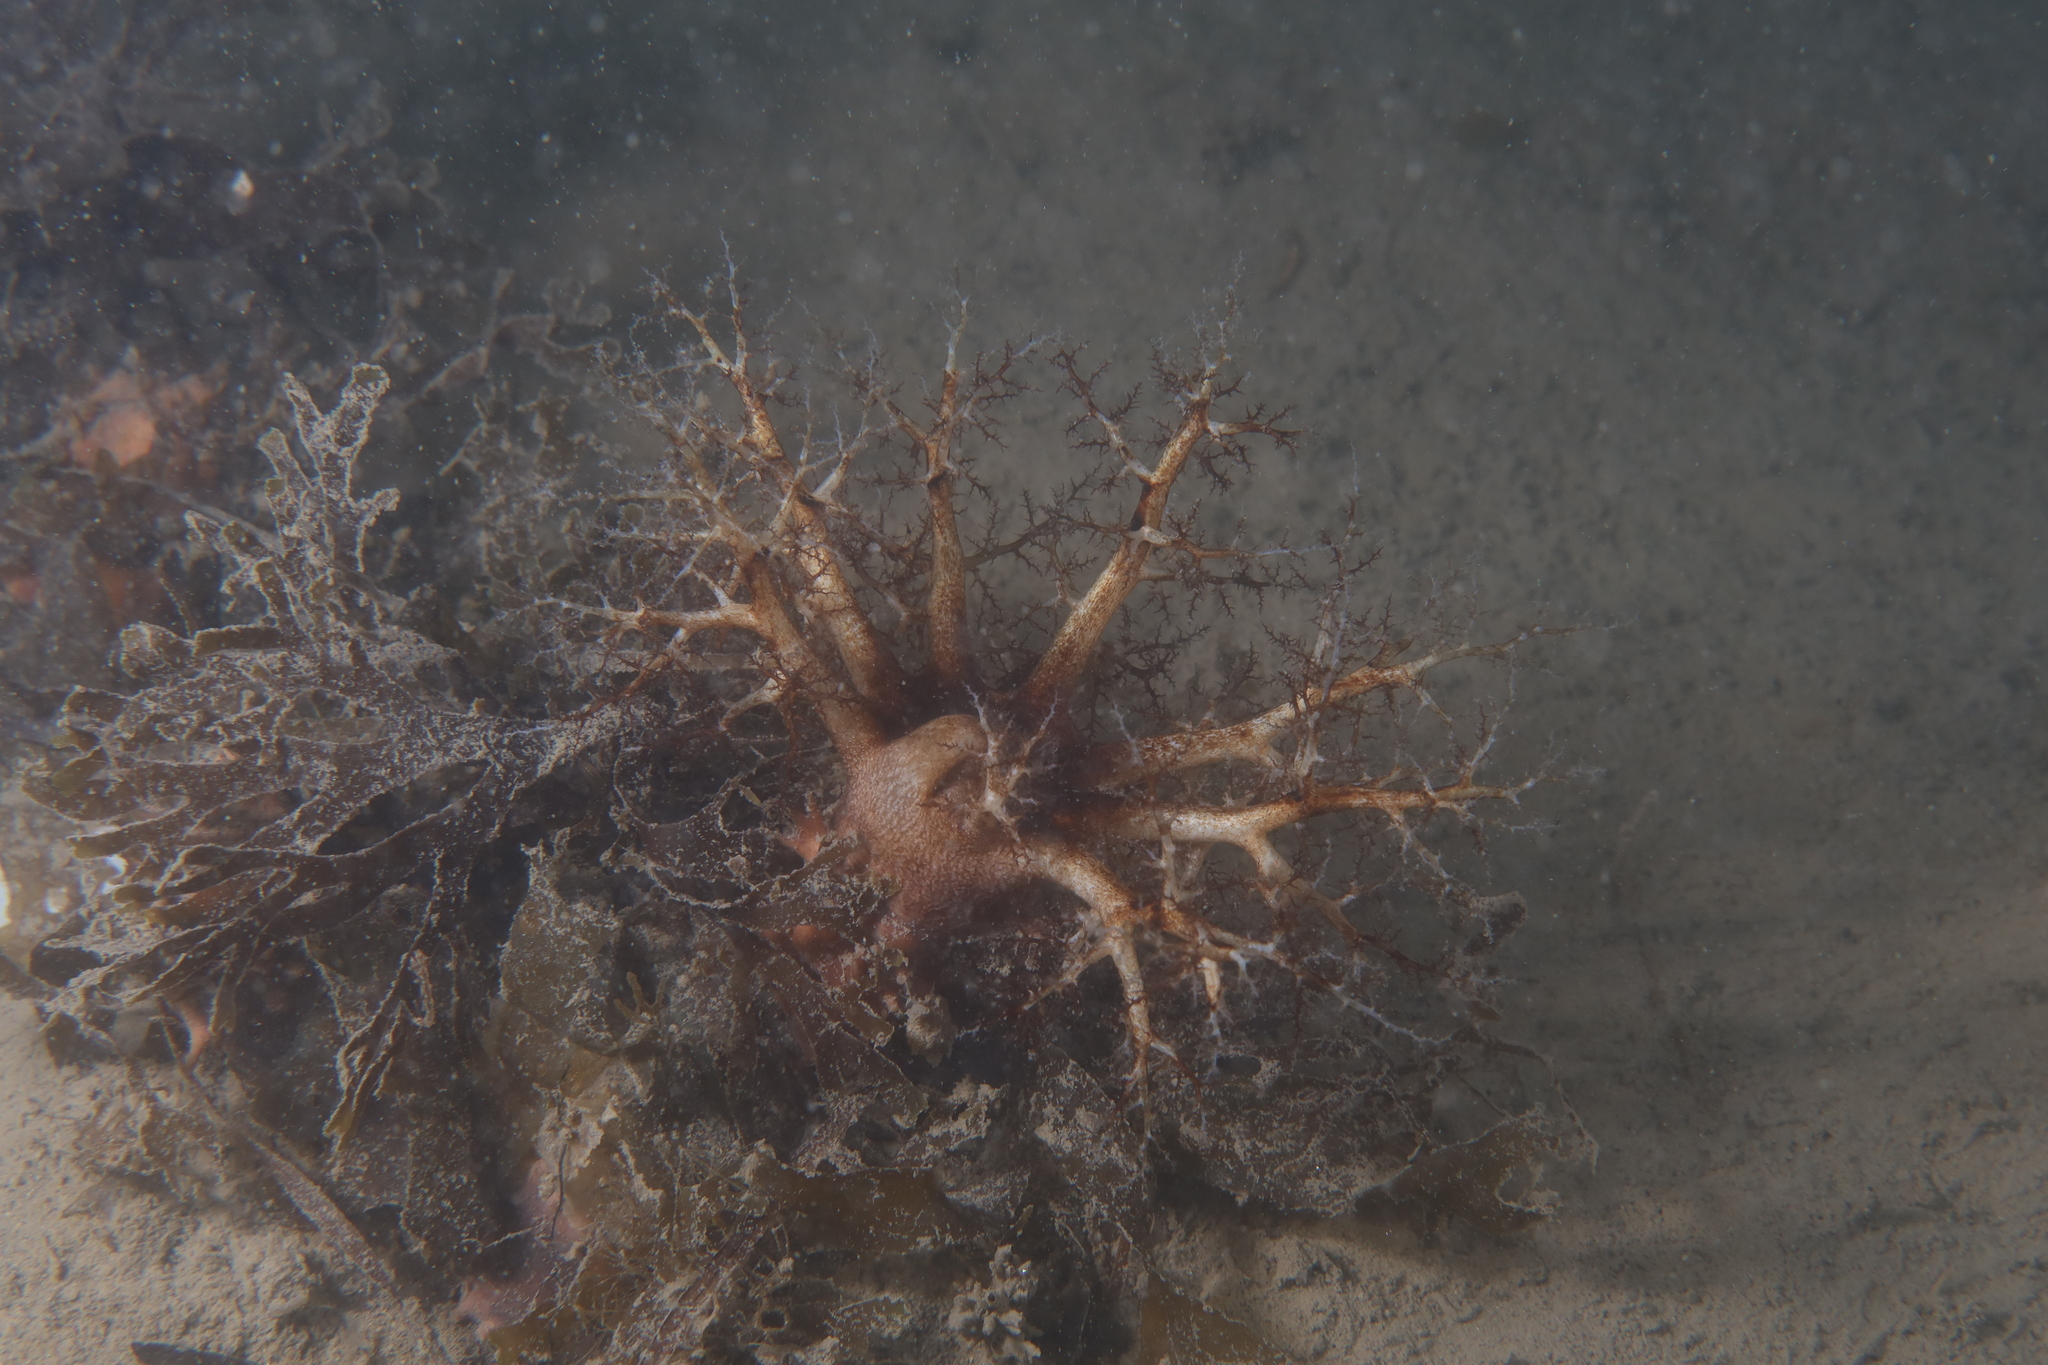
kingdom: Animalia
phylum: Echinodermata
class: Holothuroidea
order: Dendrochirotida
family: Cucumariidae
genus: Ocnus
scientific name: Ocnus planci
